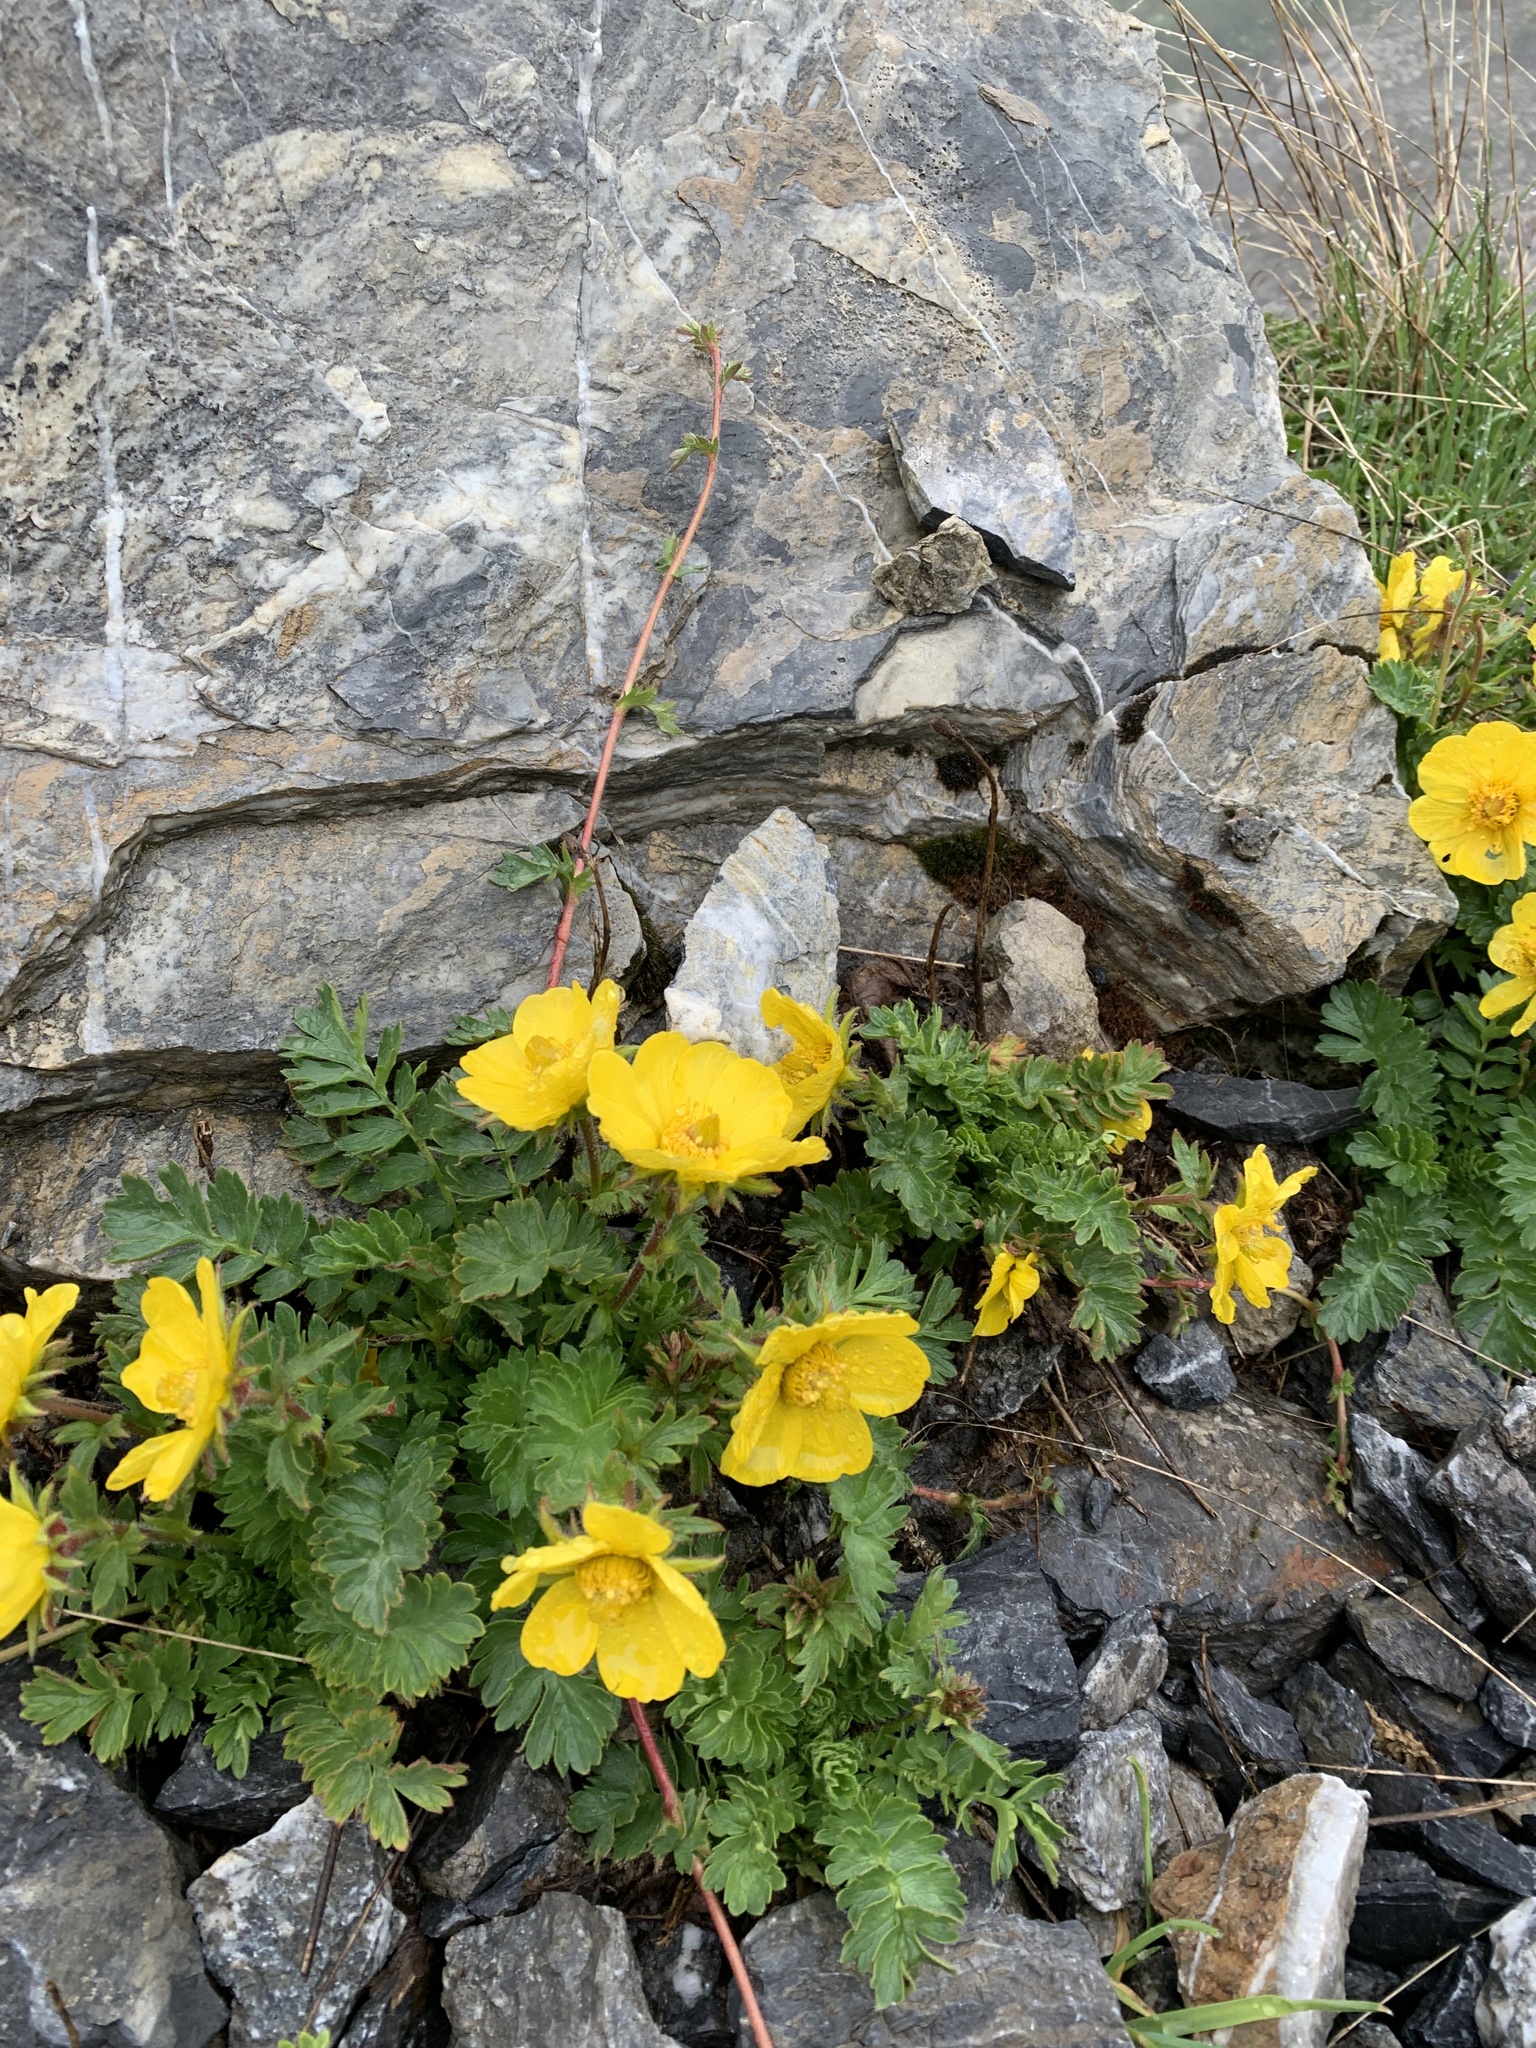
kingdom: Plantae
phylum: Tracheophyta
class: Magnoliopsida
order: Rosales
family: Rosaceae
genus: Geum
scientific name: Geum reptans
